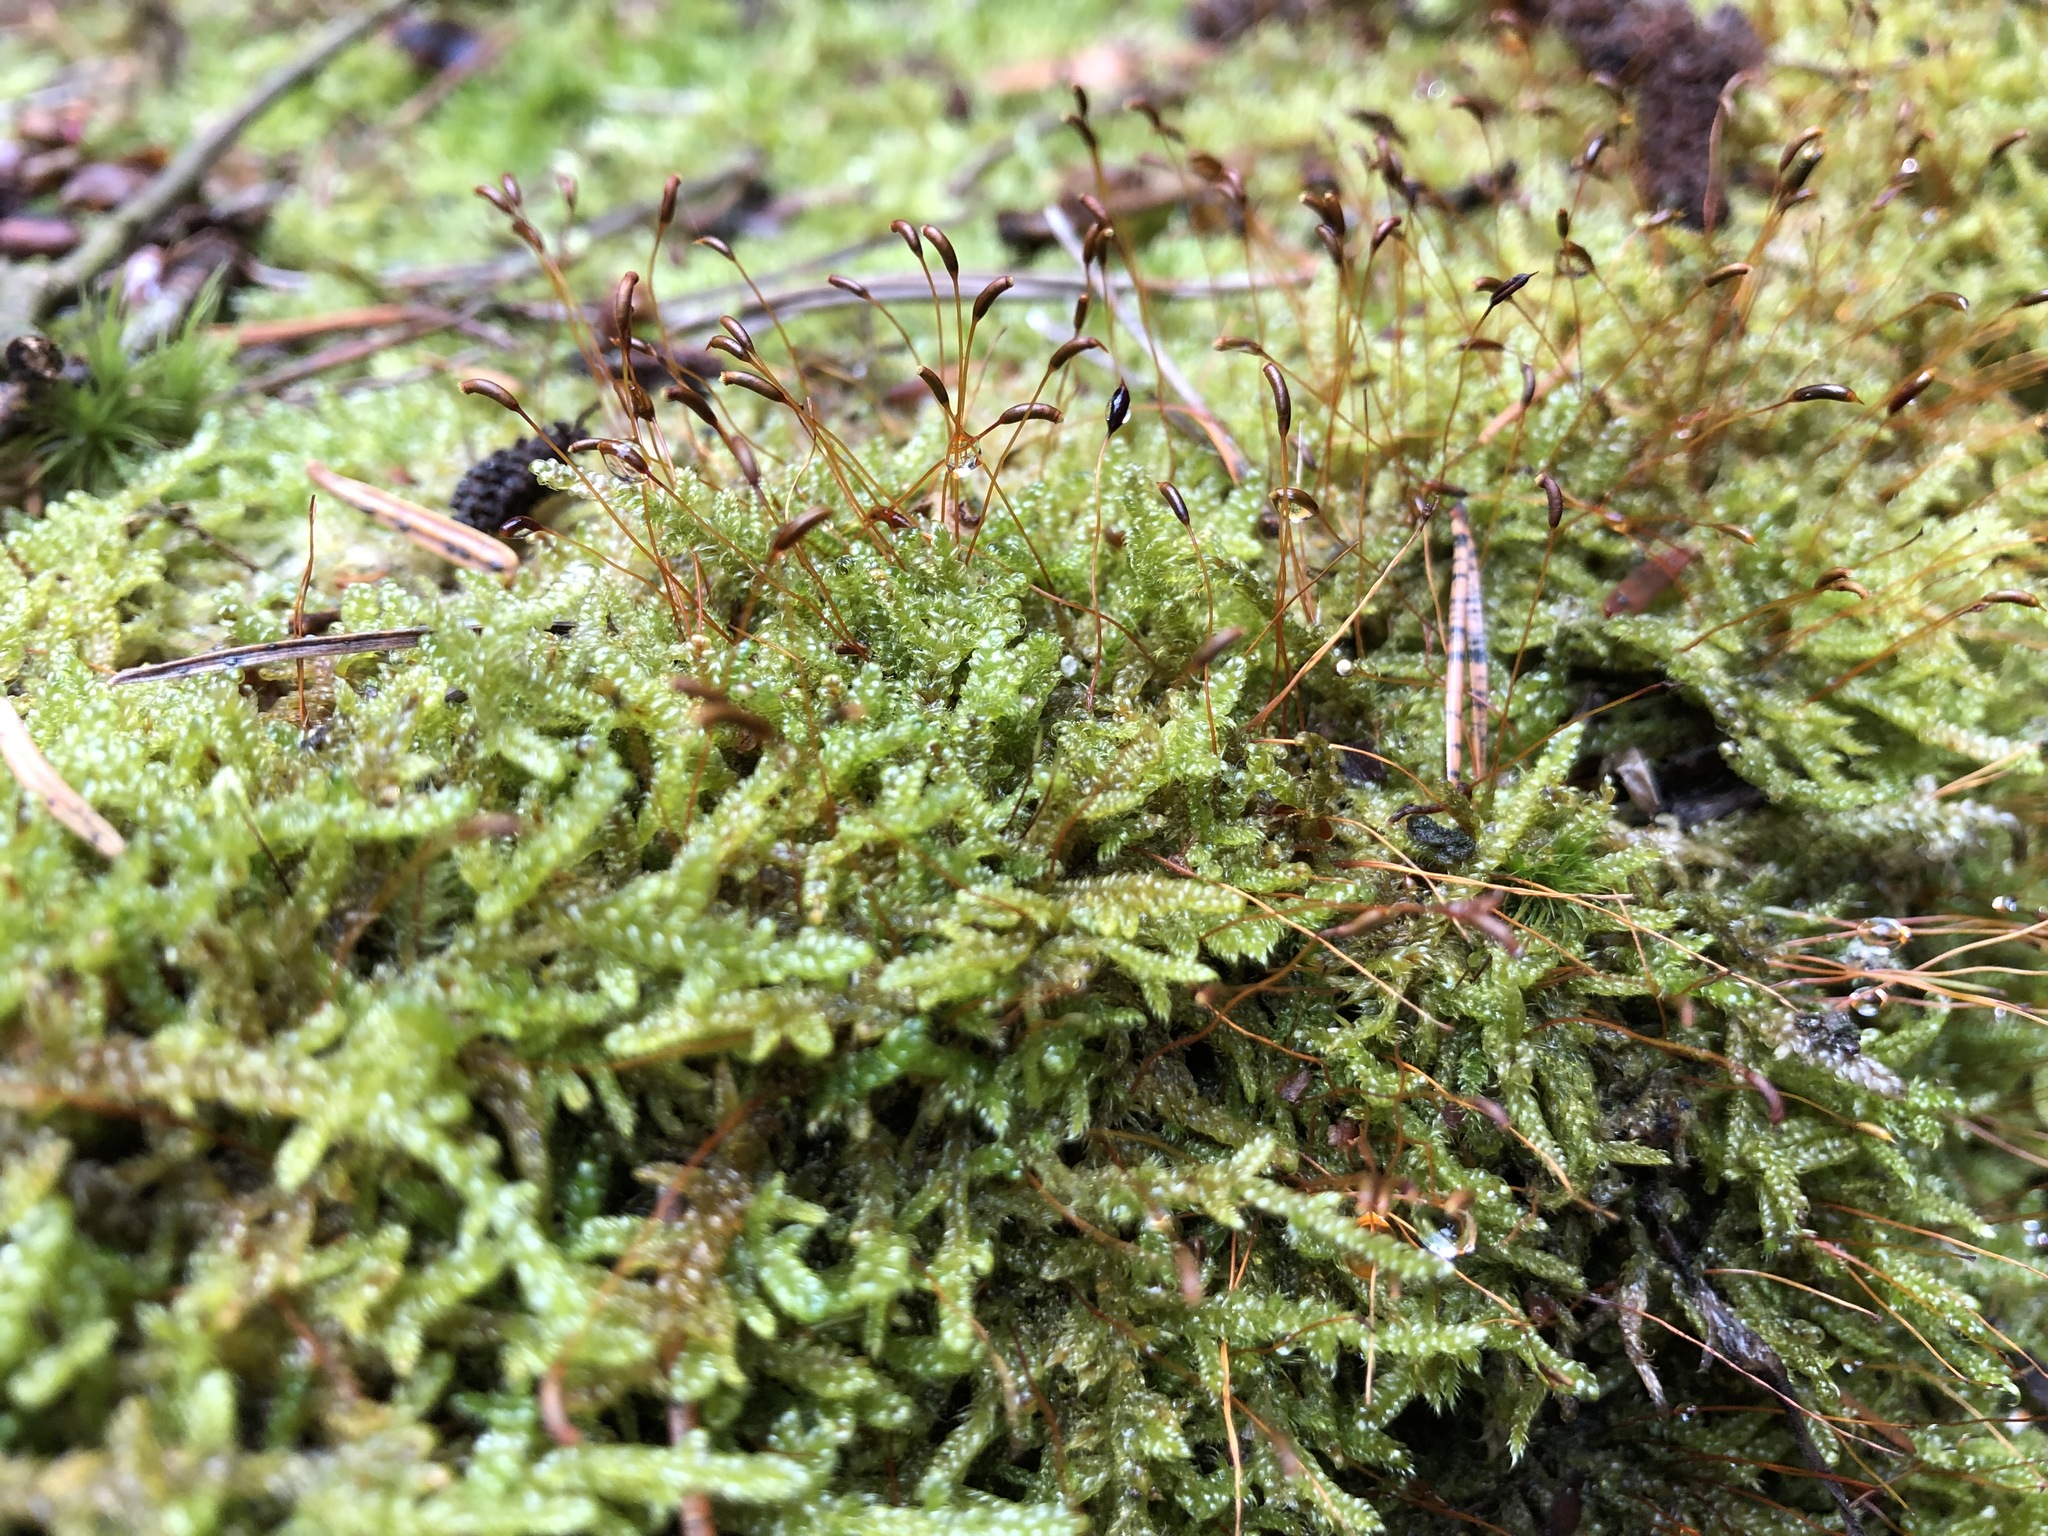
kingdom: Plantae
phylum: Bryophyta
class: Bryopsida
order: Hypnales
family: Hypnaceae
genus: Hypnum
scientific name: Hypnum cupressiforme
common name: Cypress-leaved plait-moss
